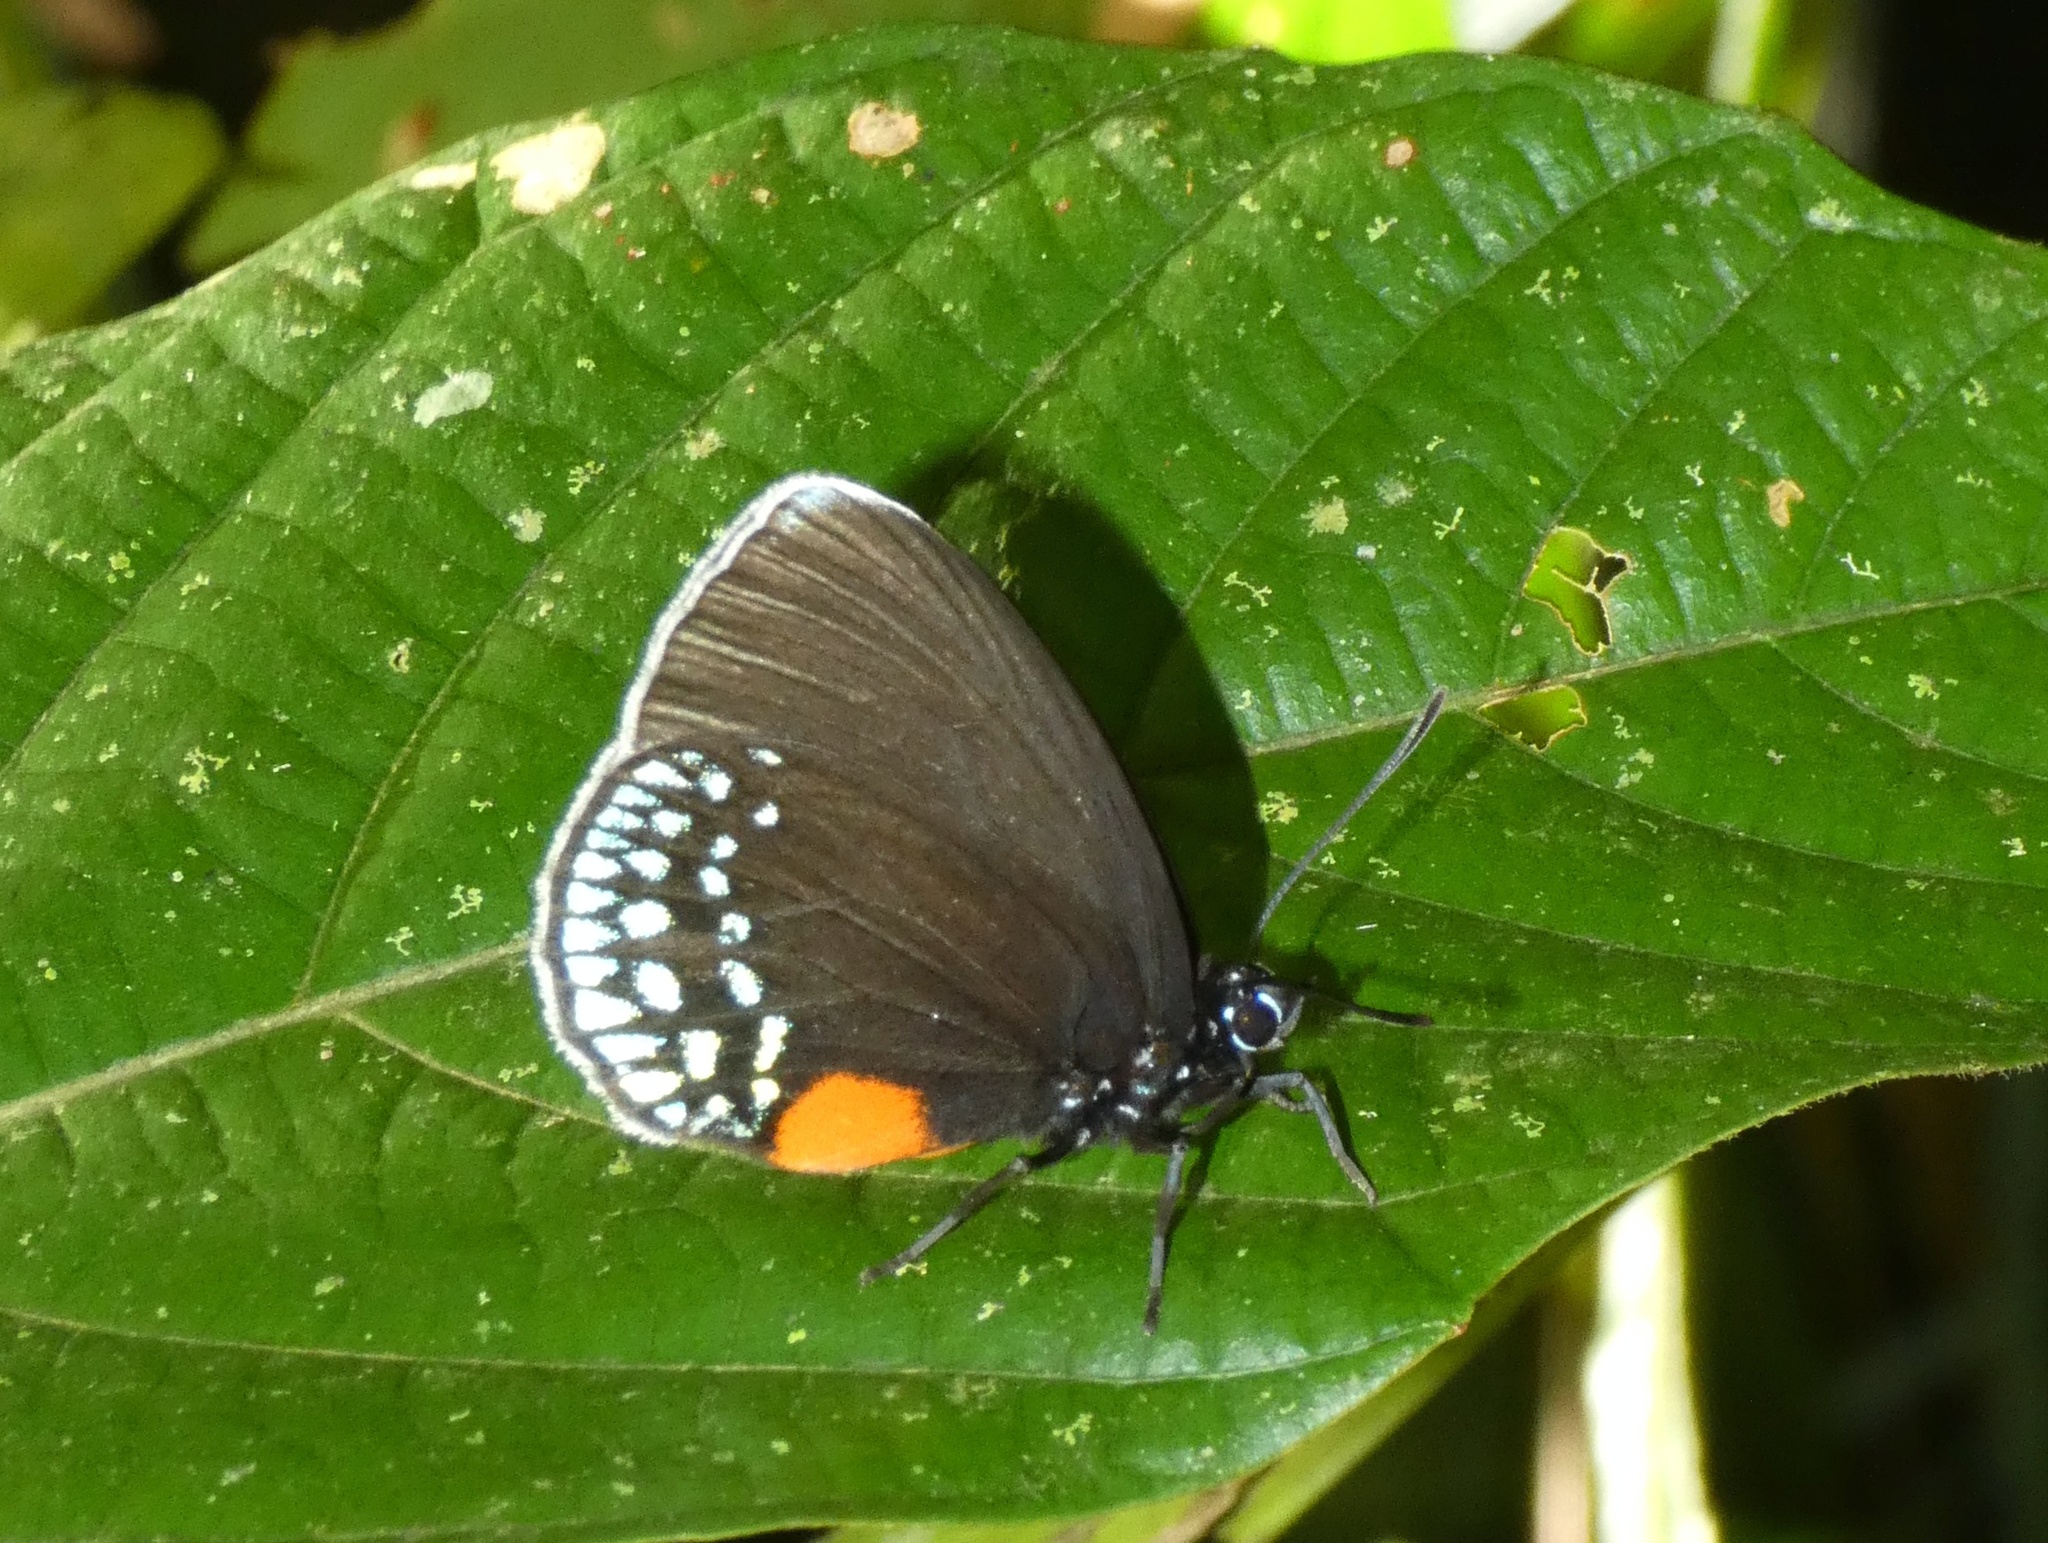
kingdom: Animalia
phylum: Arthropoda
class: Insecta
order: Lepidoptera
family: Lycaenidae
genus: Eumaeus
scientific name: Eumaeus godartii
